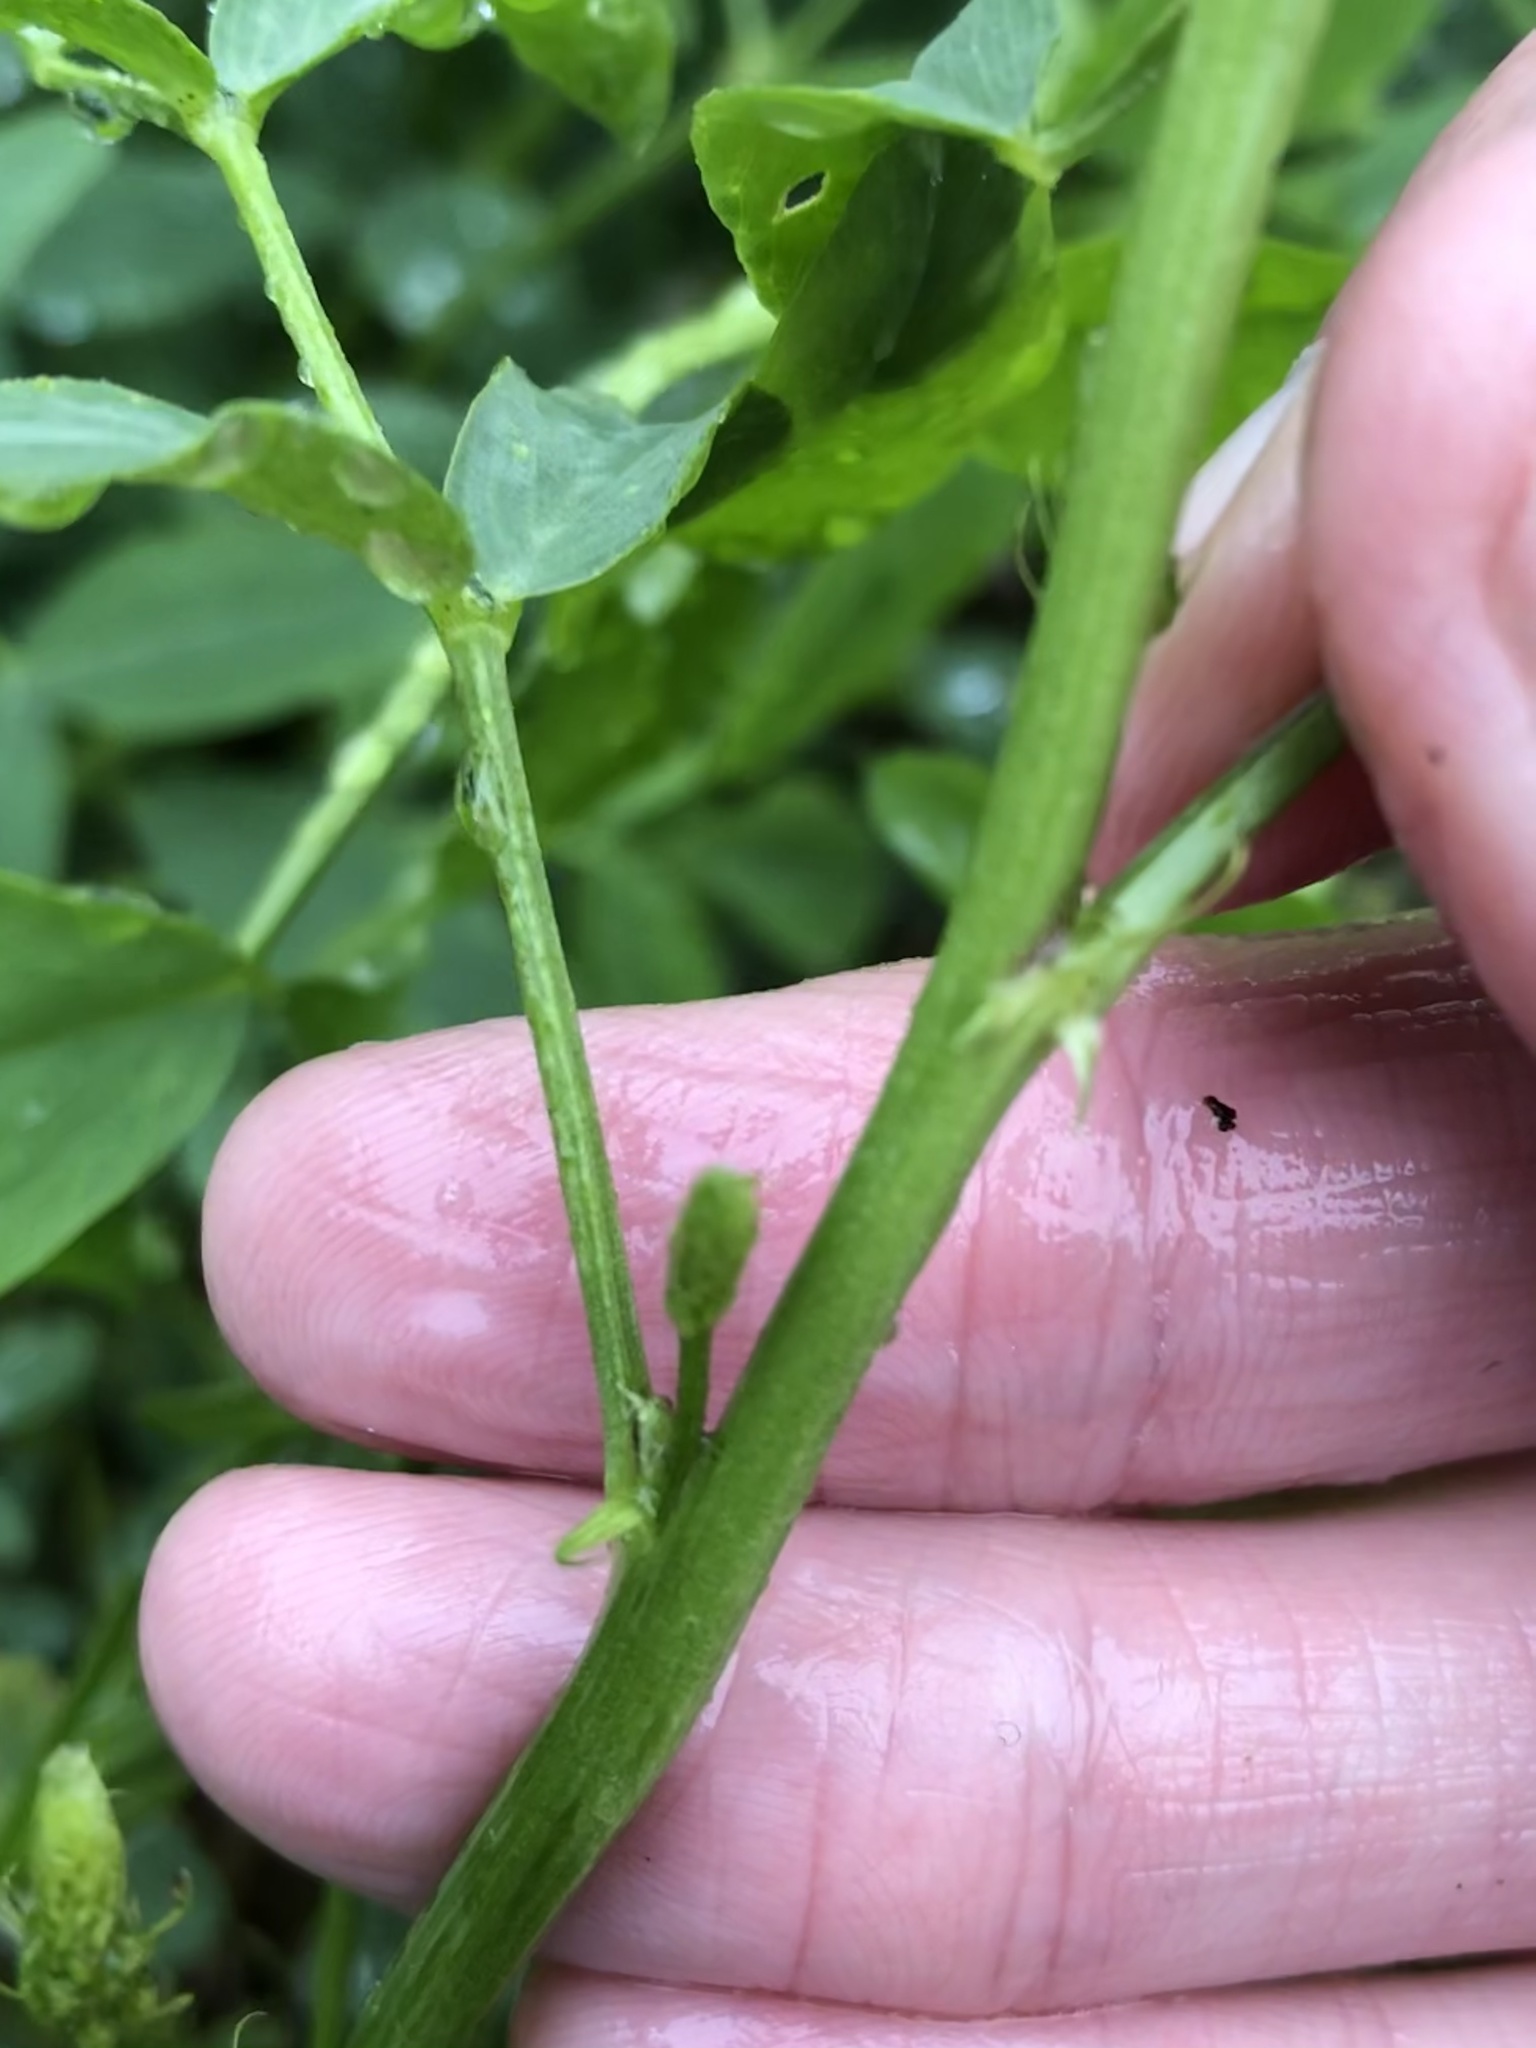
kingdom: Plantae
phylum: Tracheophyta
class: Magnoliopsida
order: Fabales
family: Fabaceae
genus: Galega
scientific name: Galega officinalis
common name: Goat's-rue
